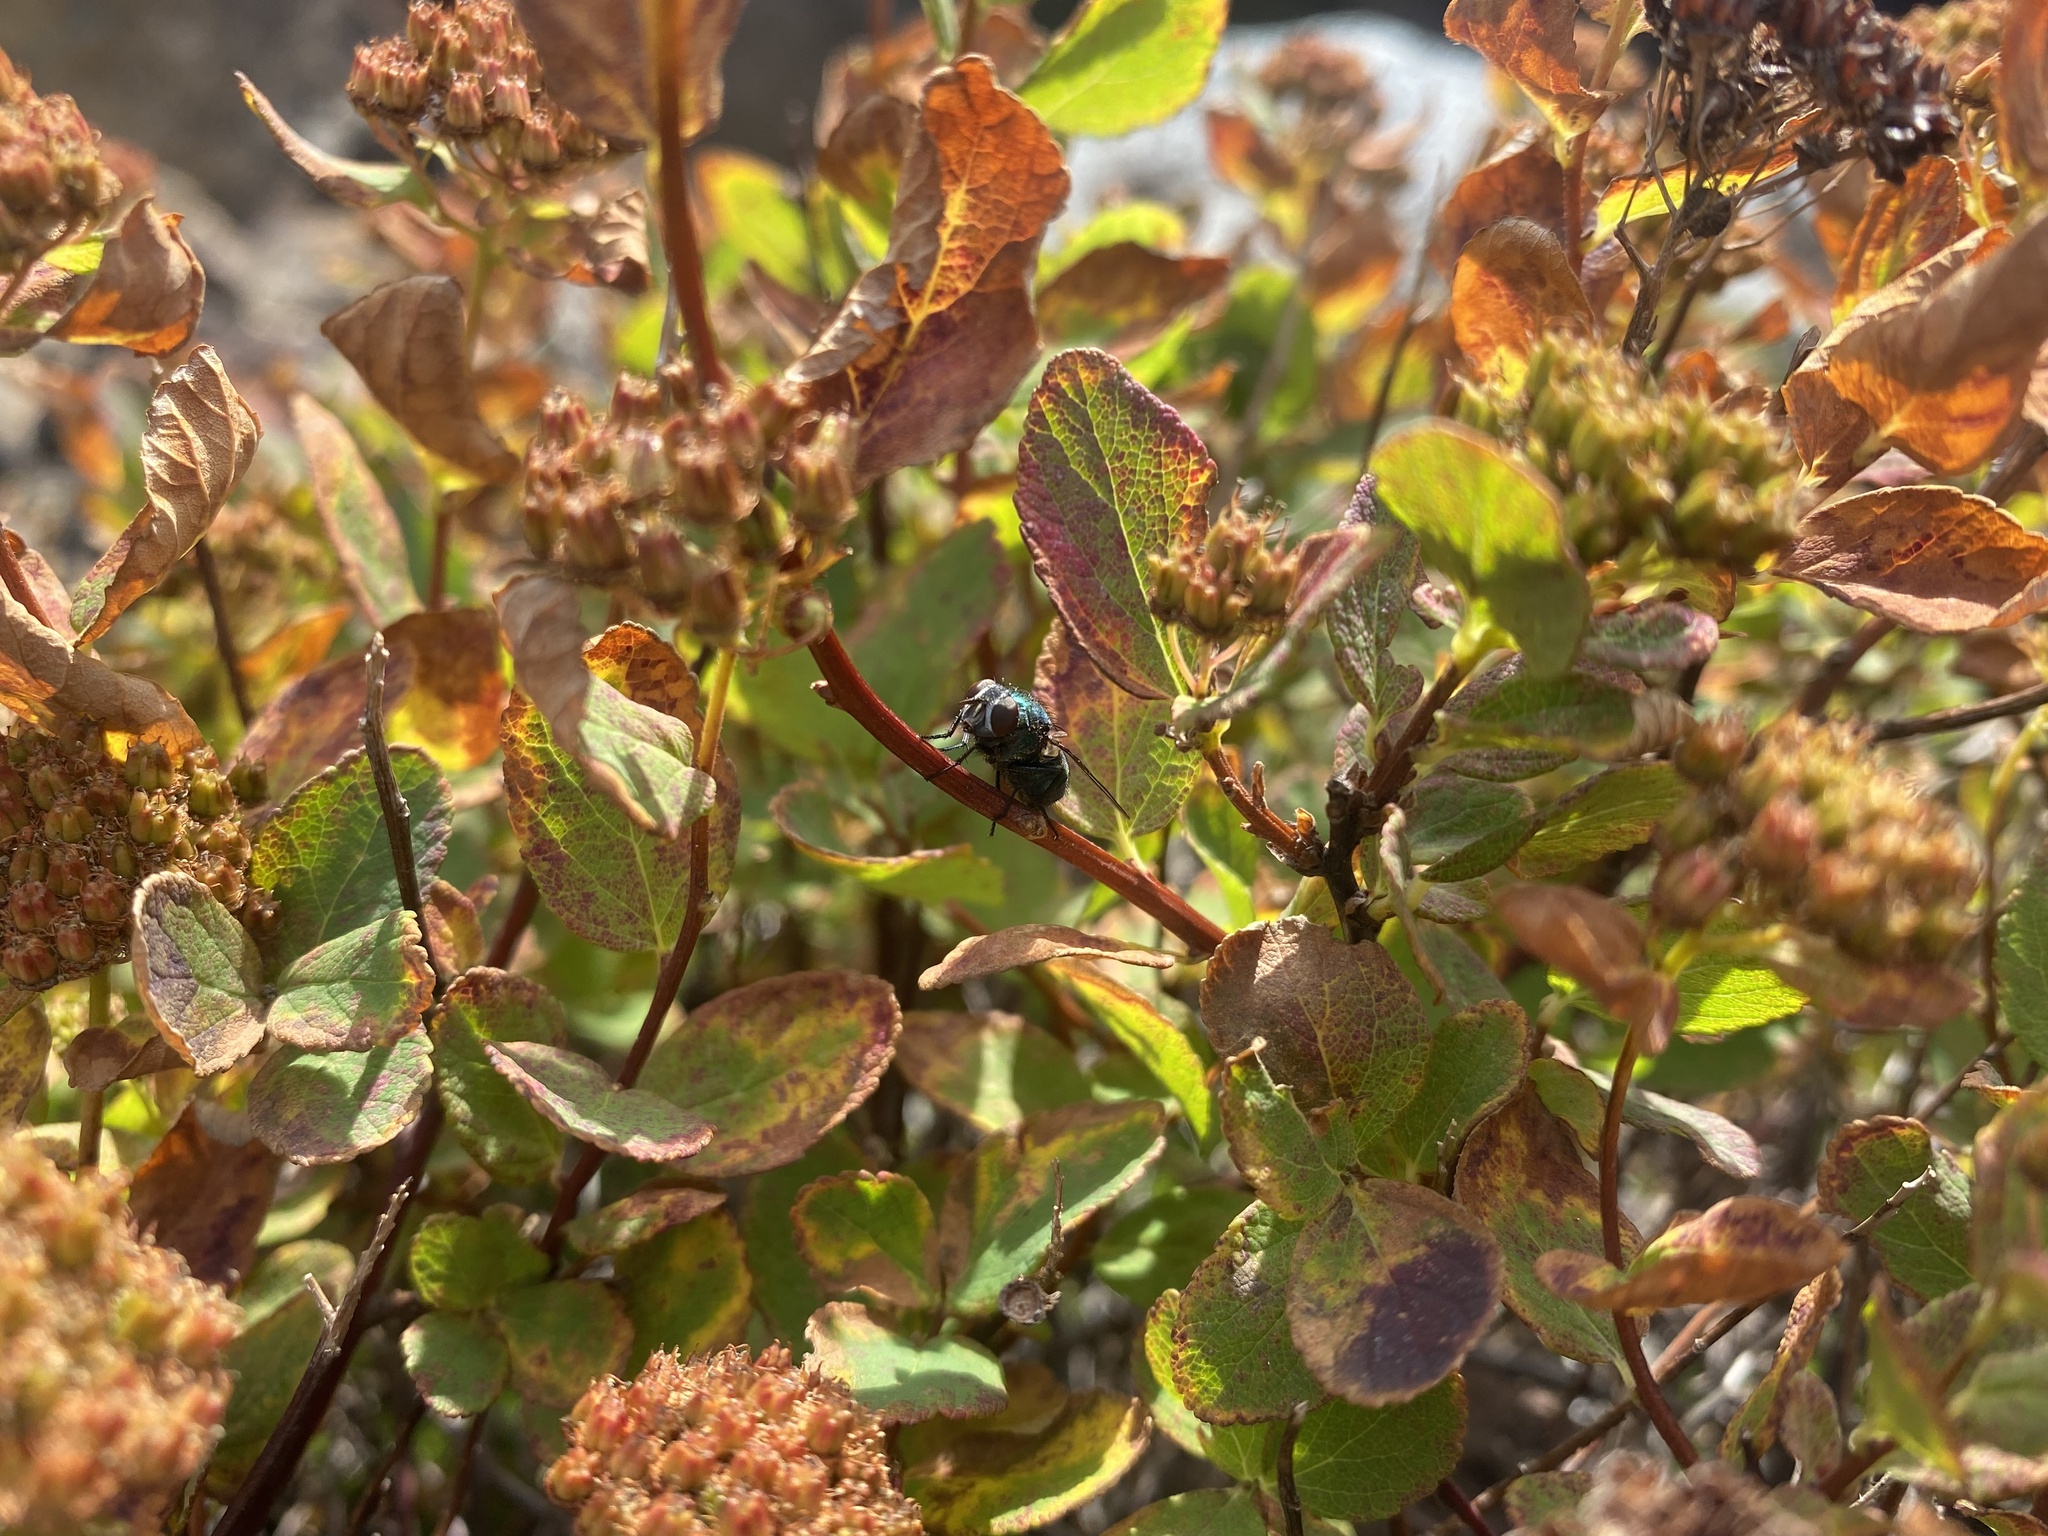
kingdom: Plantae
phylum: Tracheophyta
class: Magnoliopsida
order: Rosales
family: Rosaceae
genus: Spiraea
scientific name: Spiraea betulifolia
